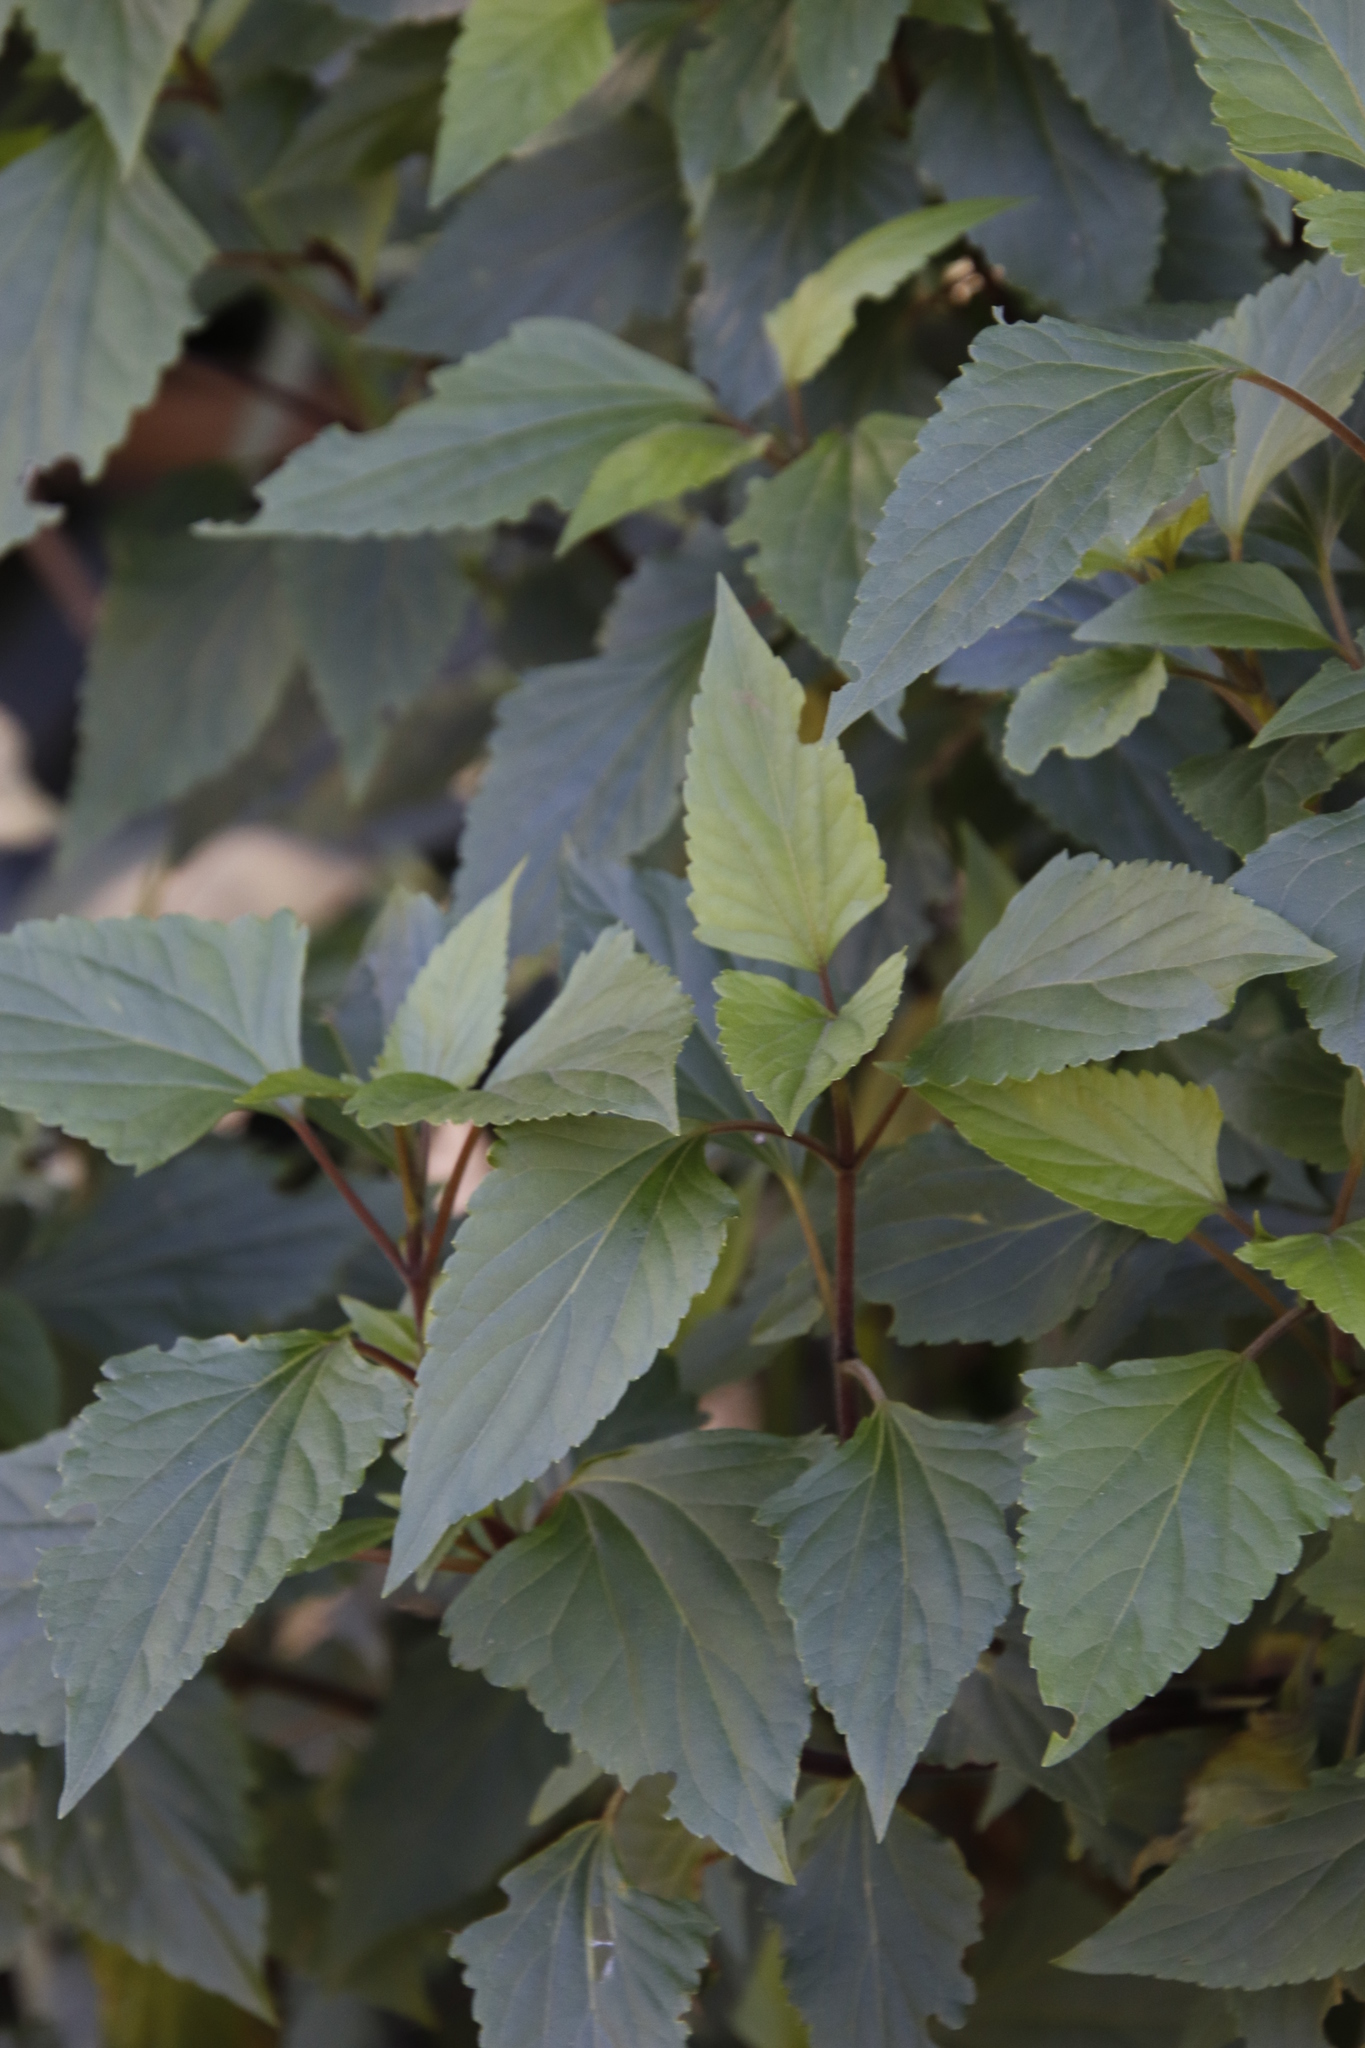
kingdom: Plantae
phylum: Tracheophyta
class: Magnoliopsida
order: Asterales
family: Asteraceae
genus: Ageratina
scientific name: Ageratina adenophora
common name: Sticky snakeroot
